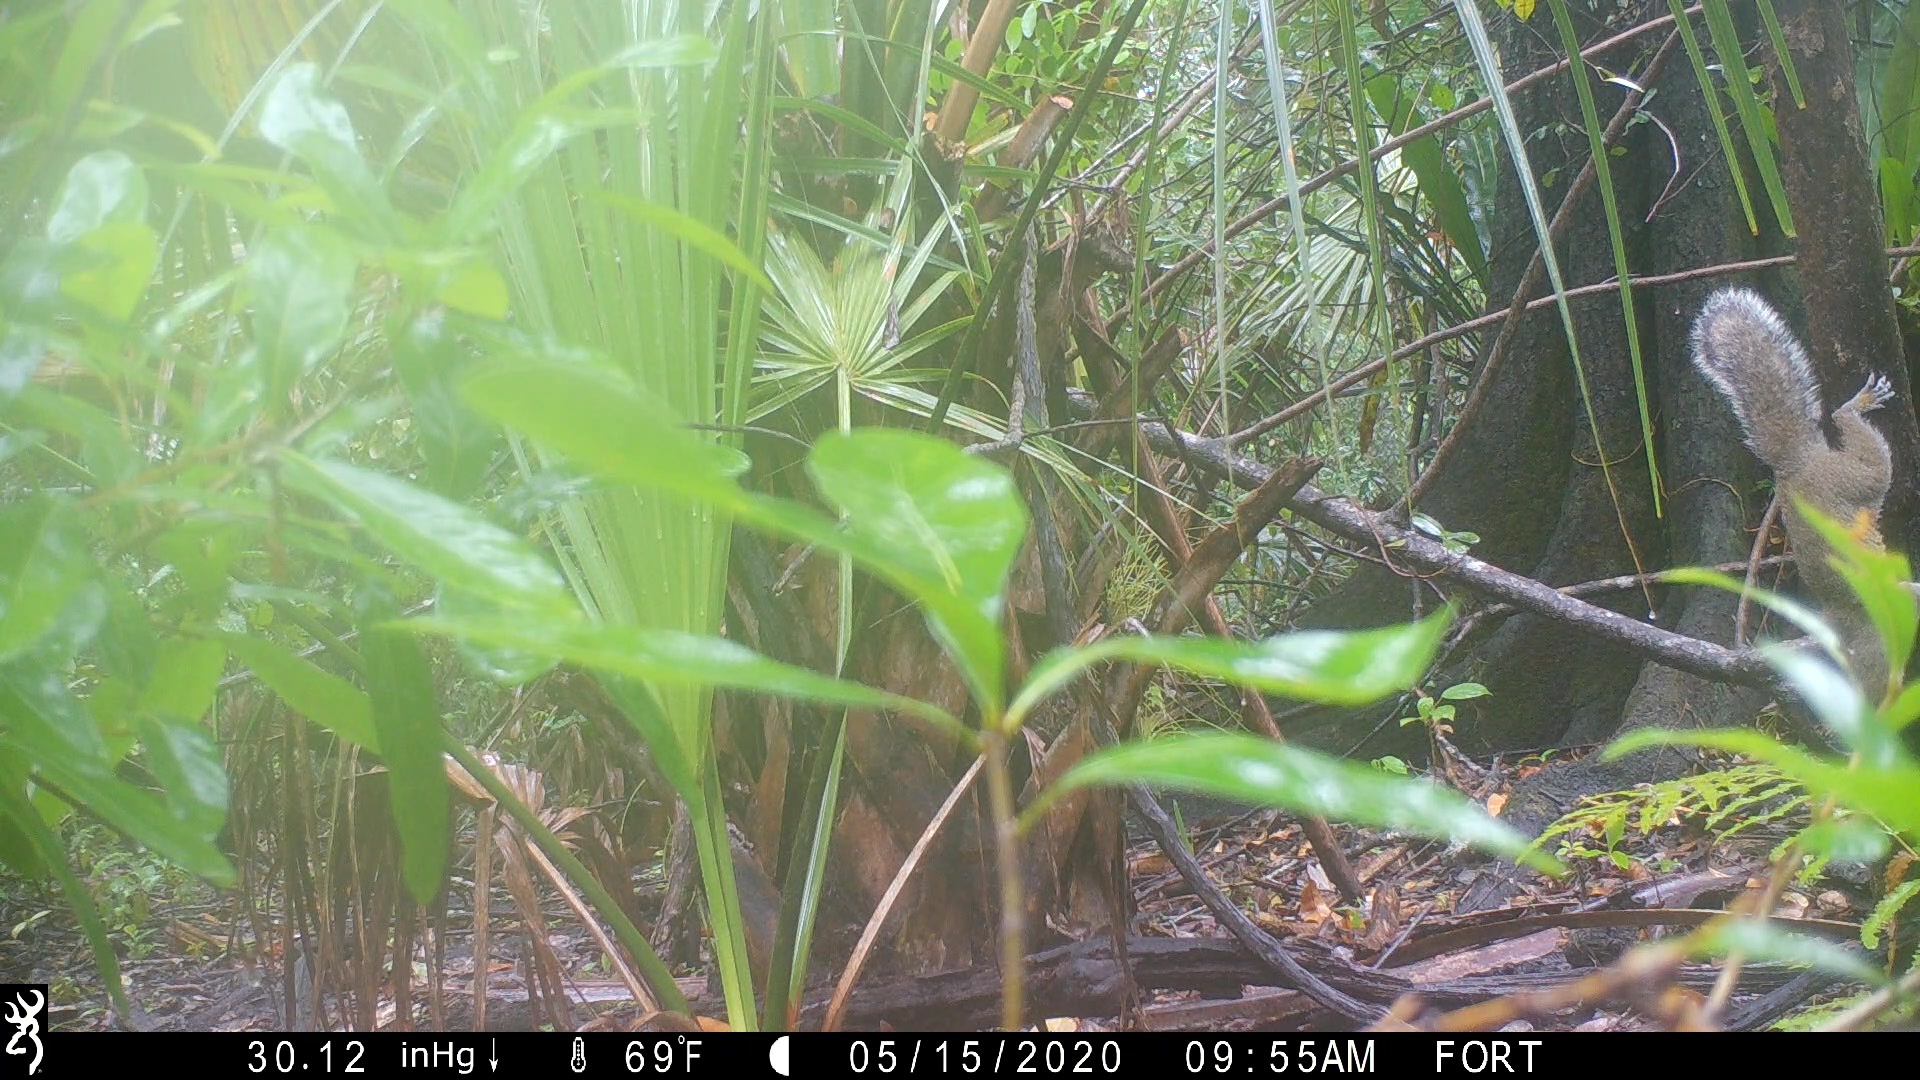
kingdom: Animalia
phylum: Chordata
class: Mammalia
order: Rodentia
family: Sciuridae
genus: Sciurus
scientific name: Sciurus carolinensis
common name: Eastern gray squirrel
